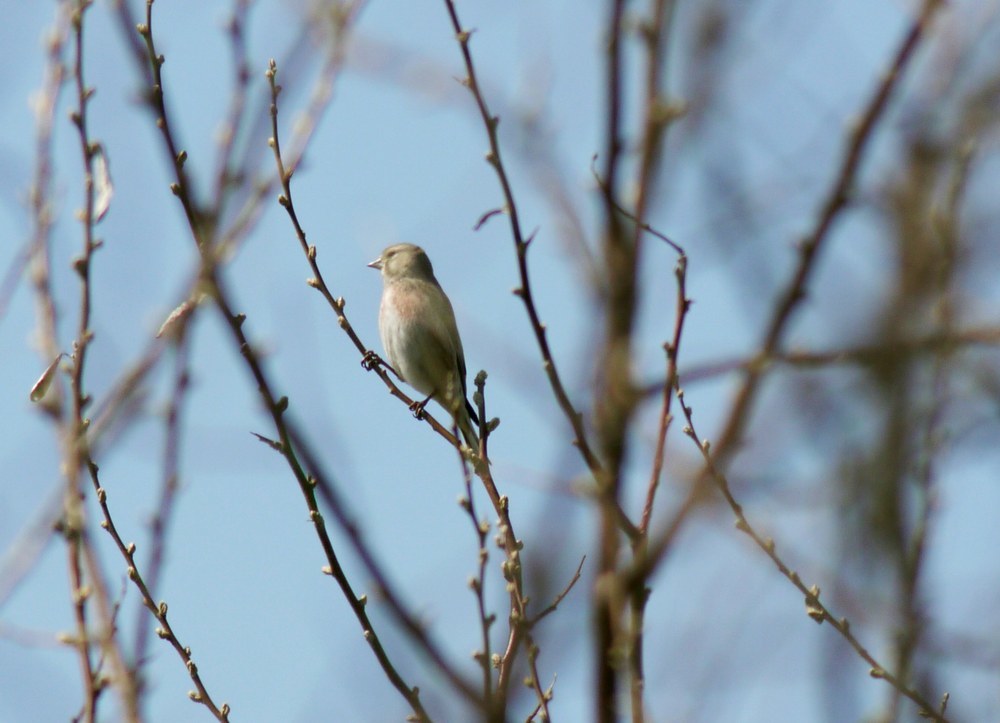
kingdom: Animalia
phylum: Chordata
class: Aves
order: Passeriformes
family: Fringillidae
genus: Linaria
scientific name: Linaria cannabina
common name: Common linnet
